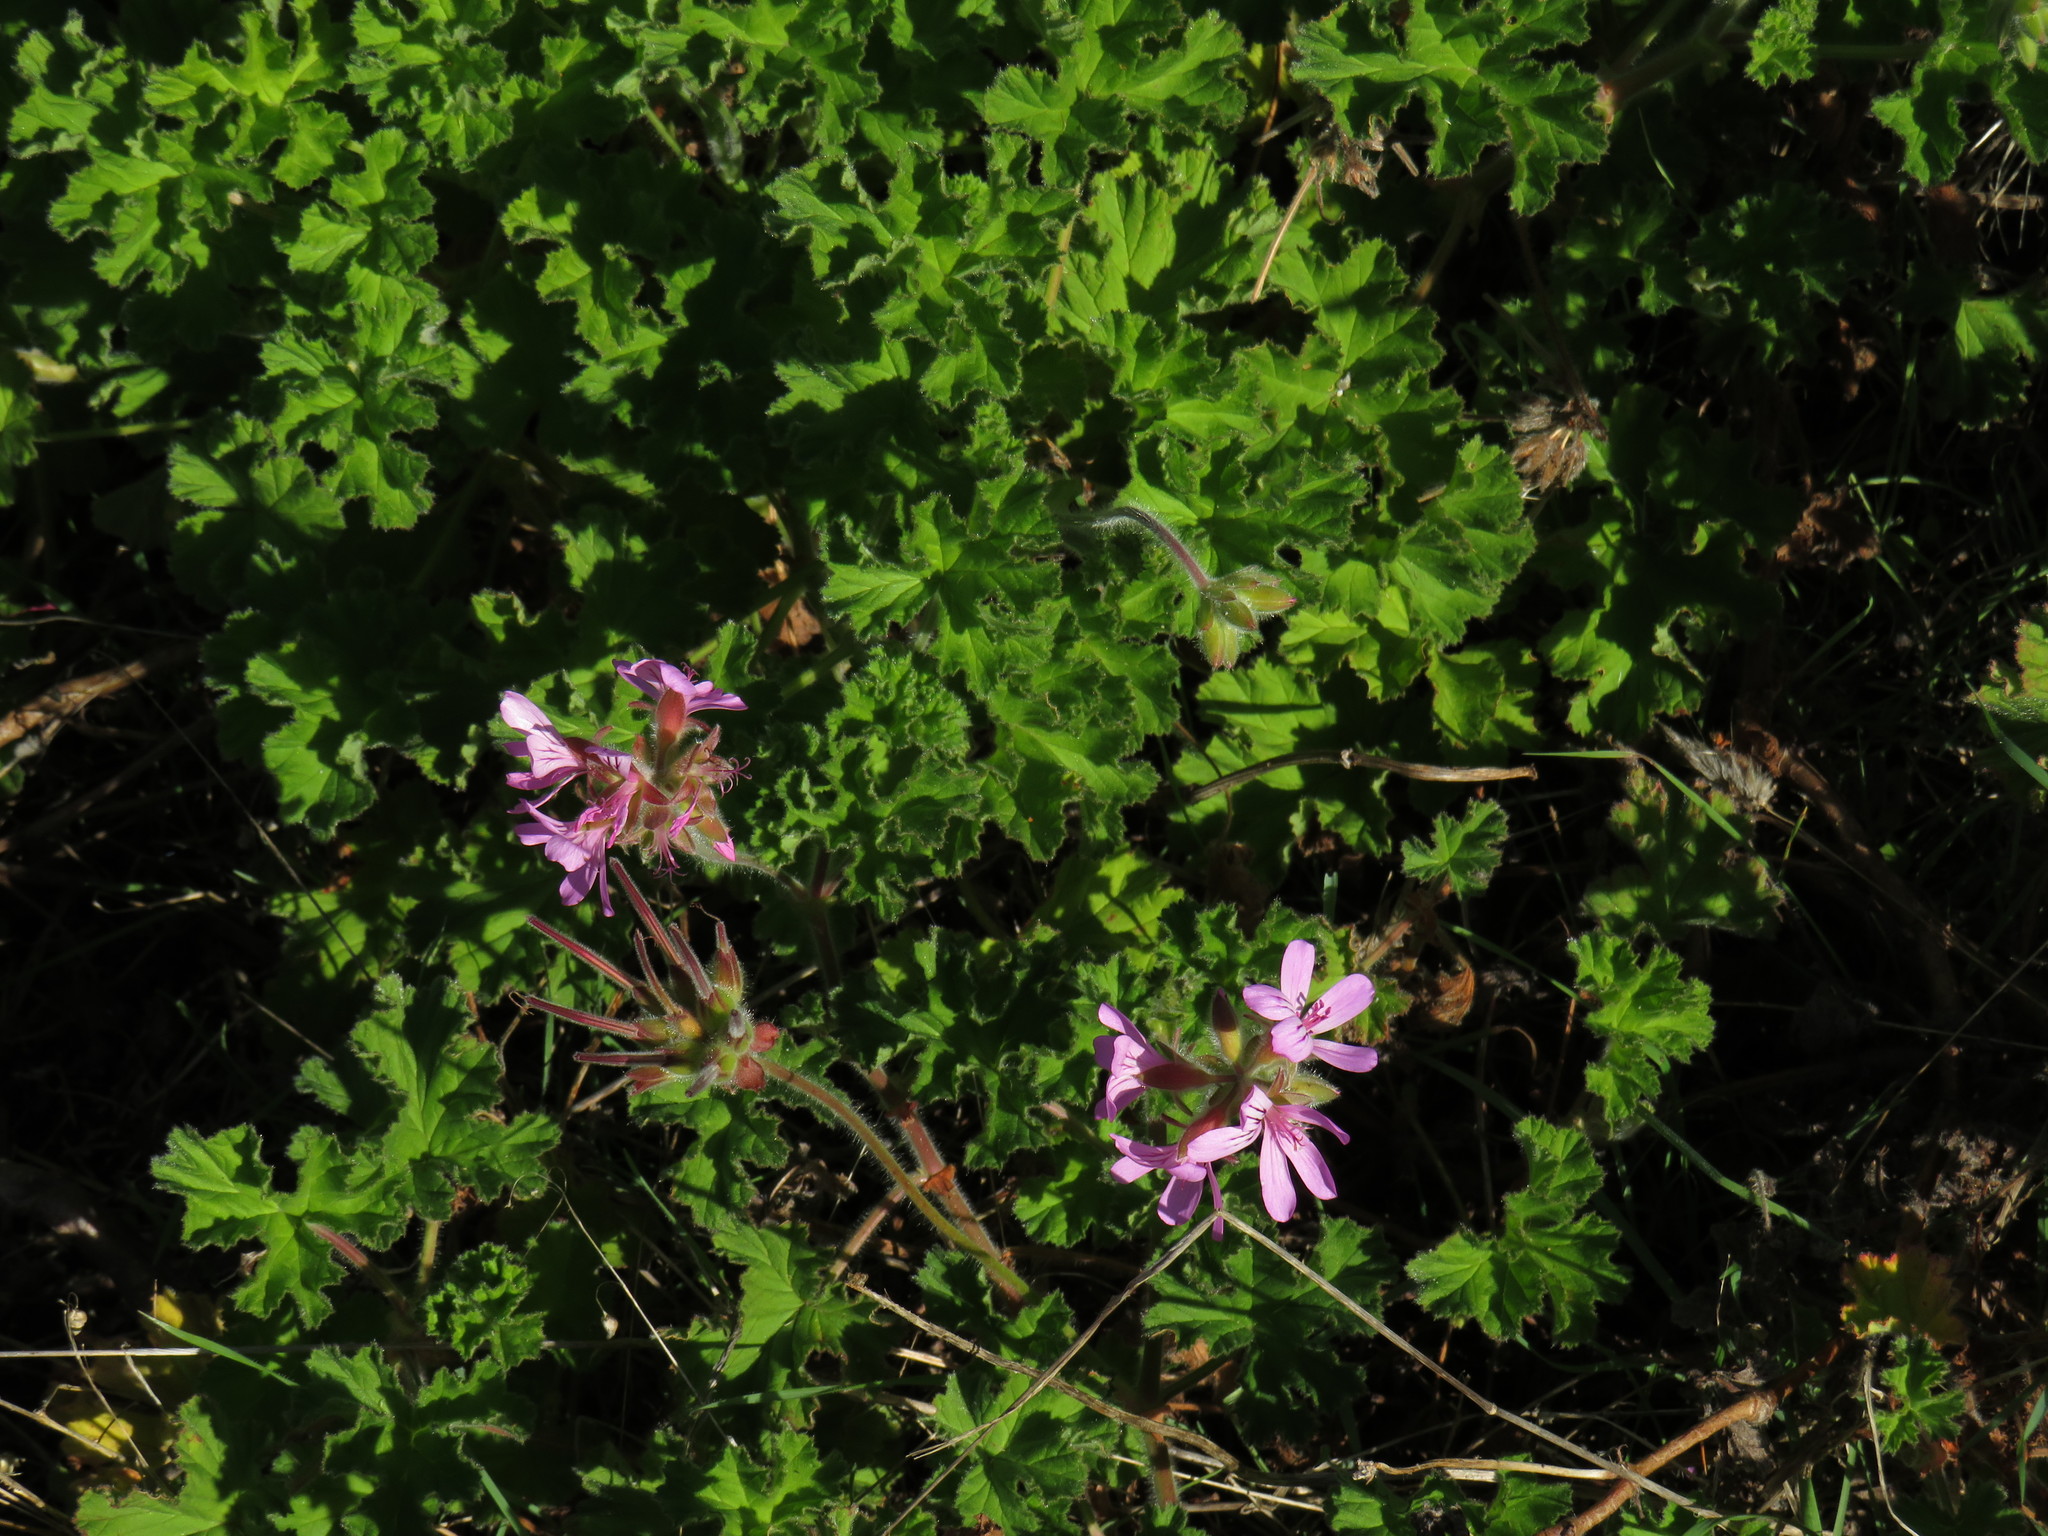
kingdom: Plantae
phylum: Tracheophyta
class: Magnoliopsida
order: Geraniales
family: Geraniaceae
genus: Pelargonium
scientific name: Pelargonium capitatum
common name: Rose scented geranium
